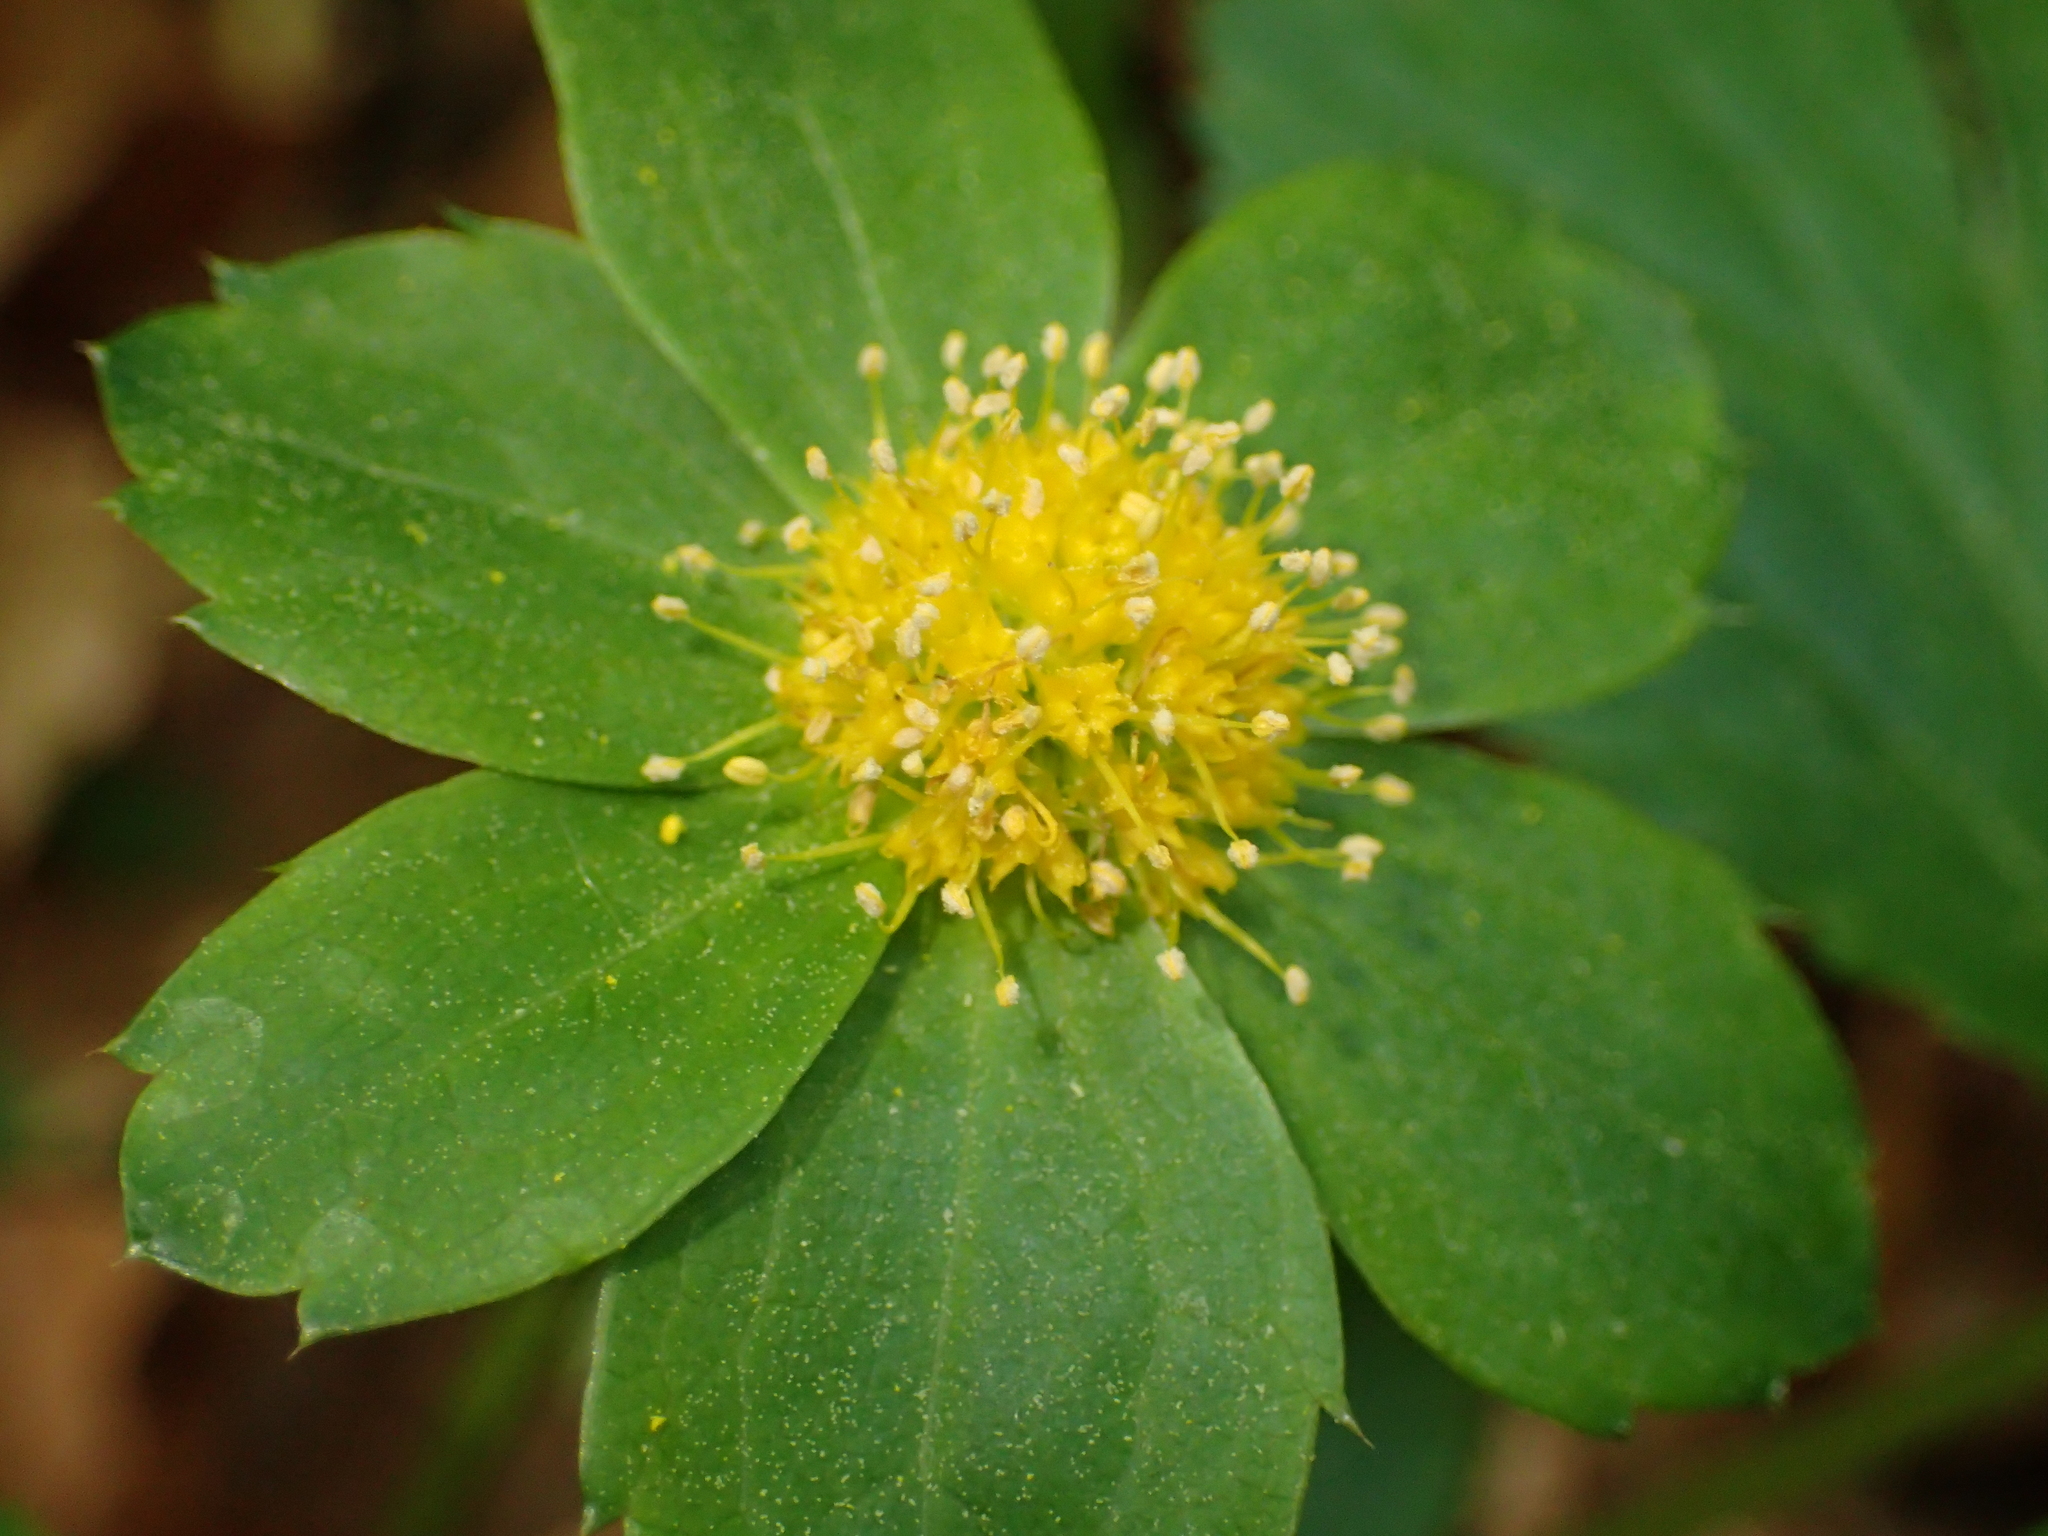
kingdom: Plantae
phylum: Tracheophyta
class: Magnoliopsida
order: Apiales
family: Apiaceae
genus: Sanicula
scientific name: Sanicula epipactis
